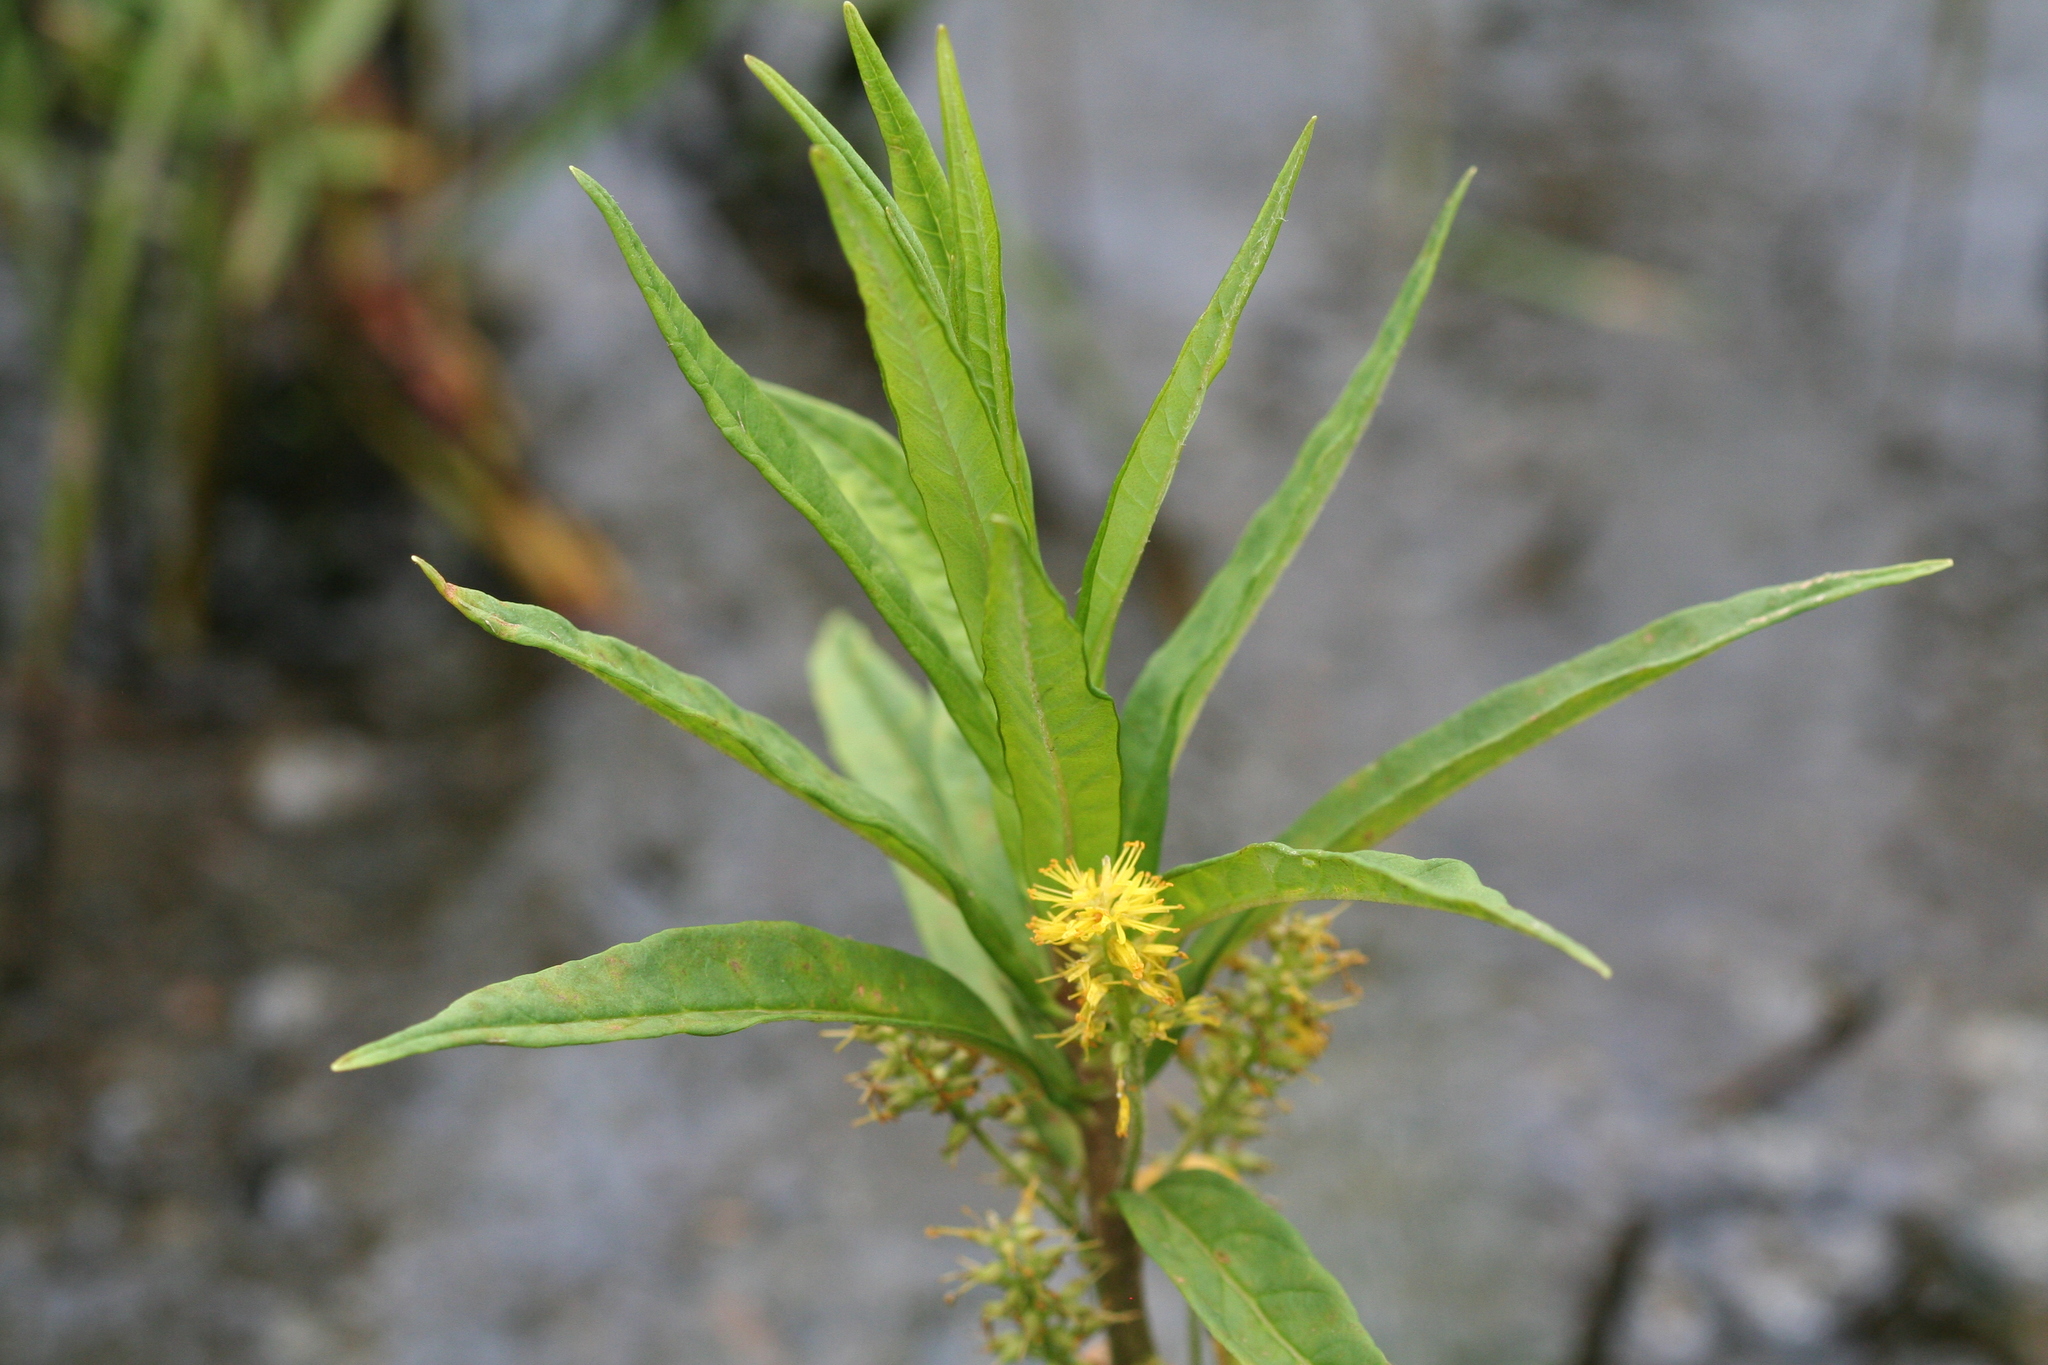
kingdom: Plantae
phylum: Tracheophyta
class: Magnoliopsida
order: Ericales
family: Primulaceae
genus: Lysimachia
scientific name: Lysimachia thyrsiflora
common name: Tufted loosestrife
